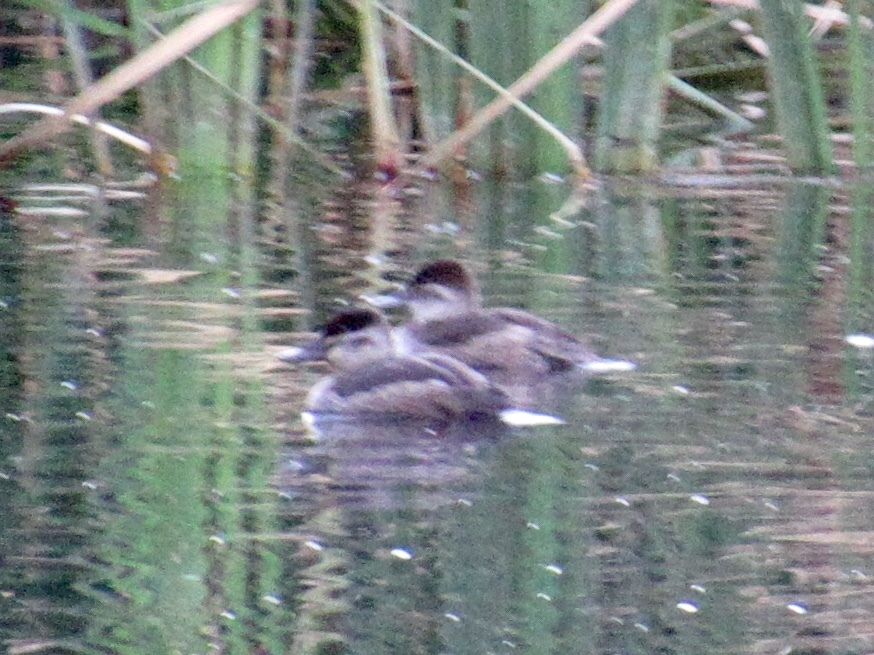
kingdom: Animalia
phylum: Chordata
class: Aves
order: Anseriformes
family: Anatidae
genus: Oxyura
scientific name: Oxyura jamaicensis
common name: Ruddy duck
